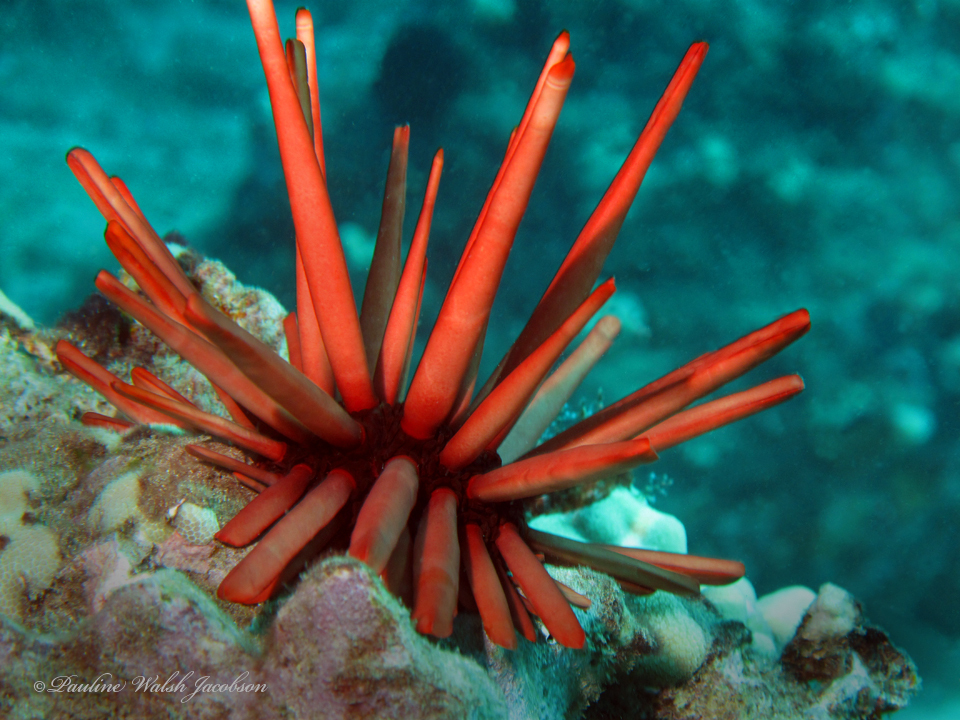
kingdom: Animalia
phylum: Echinodermata
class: Echinoidea
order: Camarodonta
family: Echinometridae
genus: Heterocentrotus
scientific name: Heterocentrotus mamillatus
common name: Slate pencil urchin
